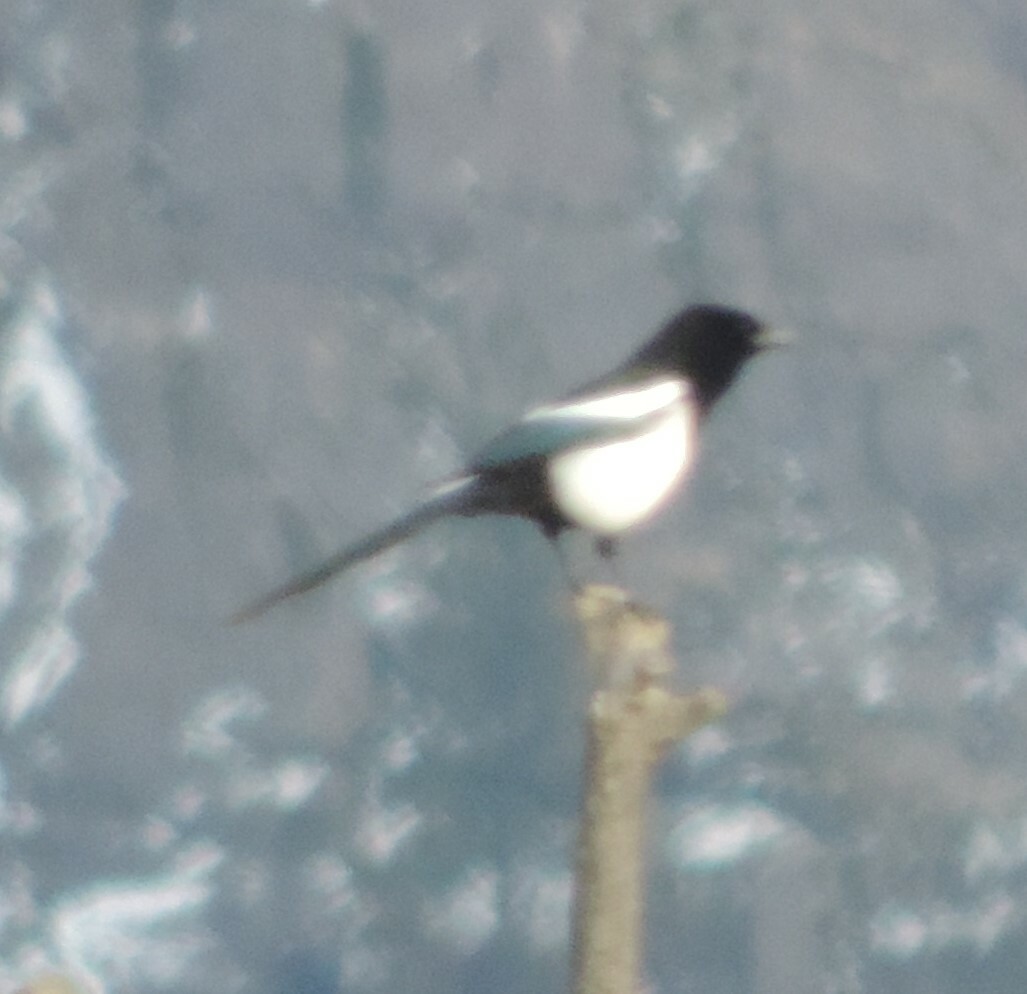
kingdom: Animalia
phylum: Chordata
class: Aves
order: Passeriformes
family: Corvidae
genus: Pica
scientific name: Pica hudsonia
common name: Black-billed magpie
